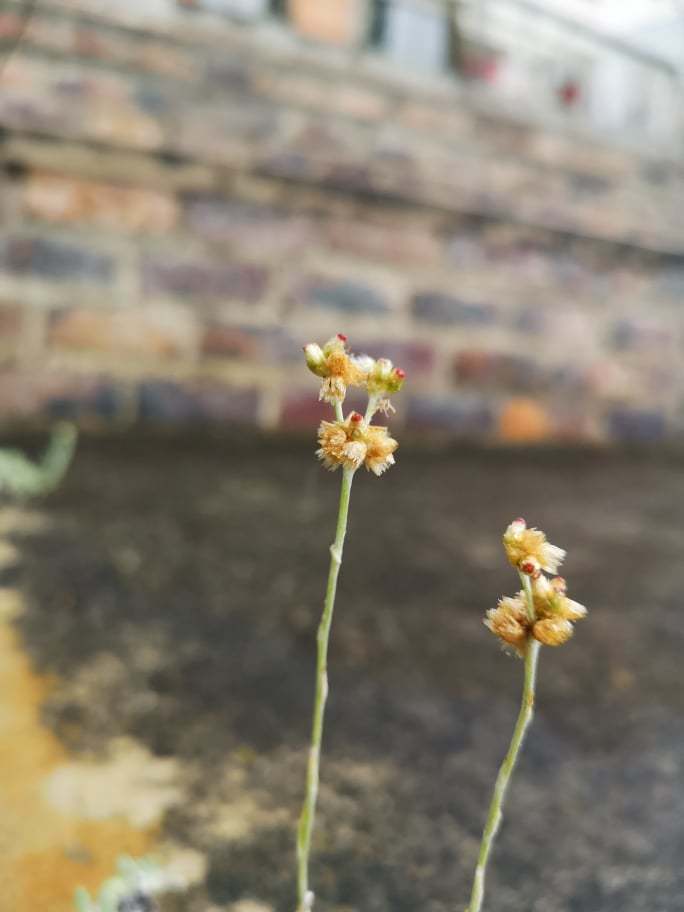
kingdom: Plantae
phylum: Tracheophyta
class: Magnoliopsida
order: Asterales
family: Asteraceae
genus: Helichrysum
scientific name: Helichrysum luteoalbum
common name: Daisy
